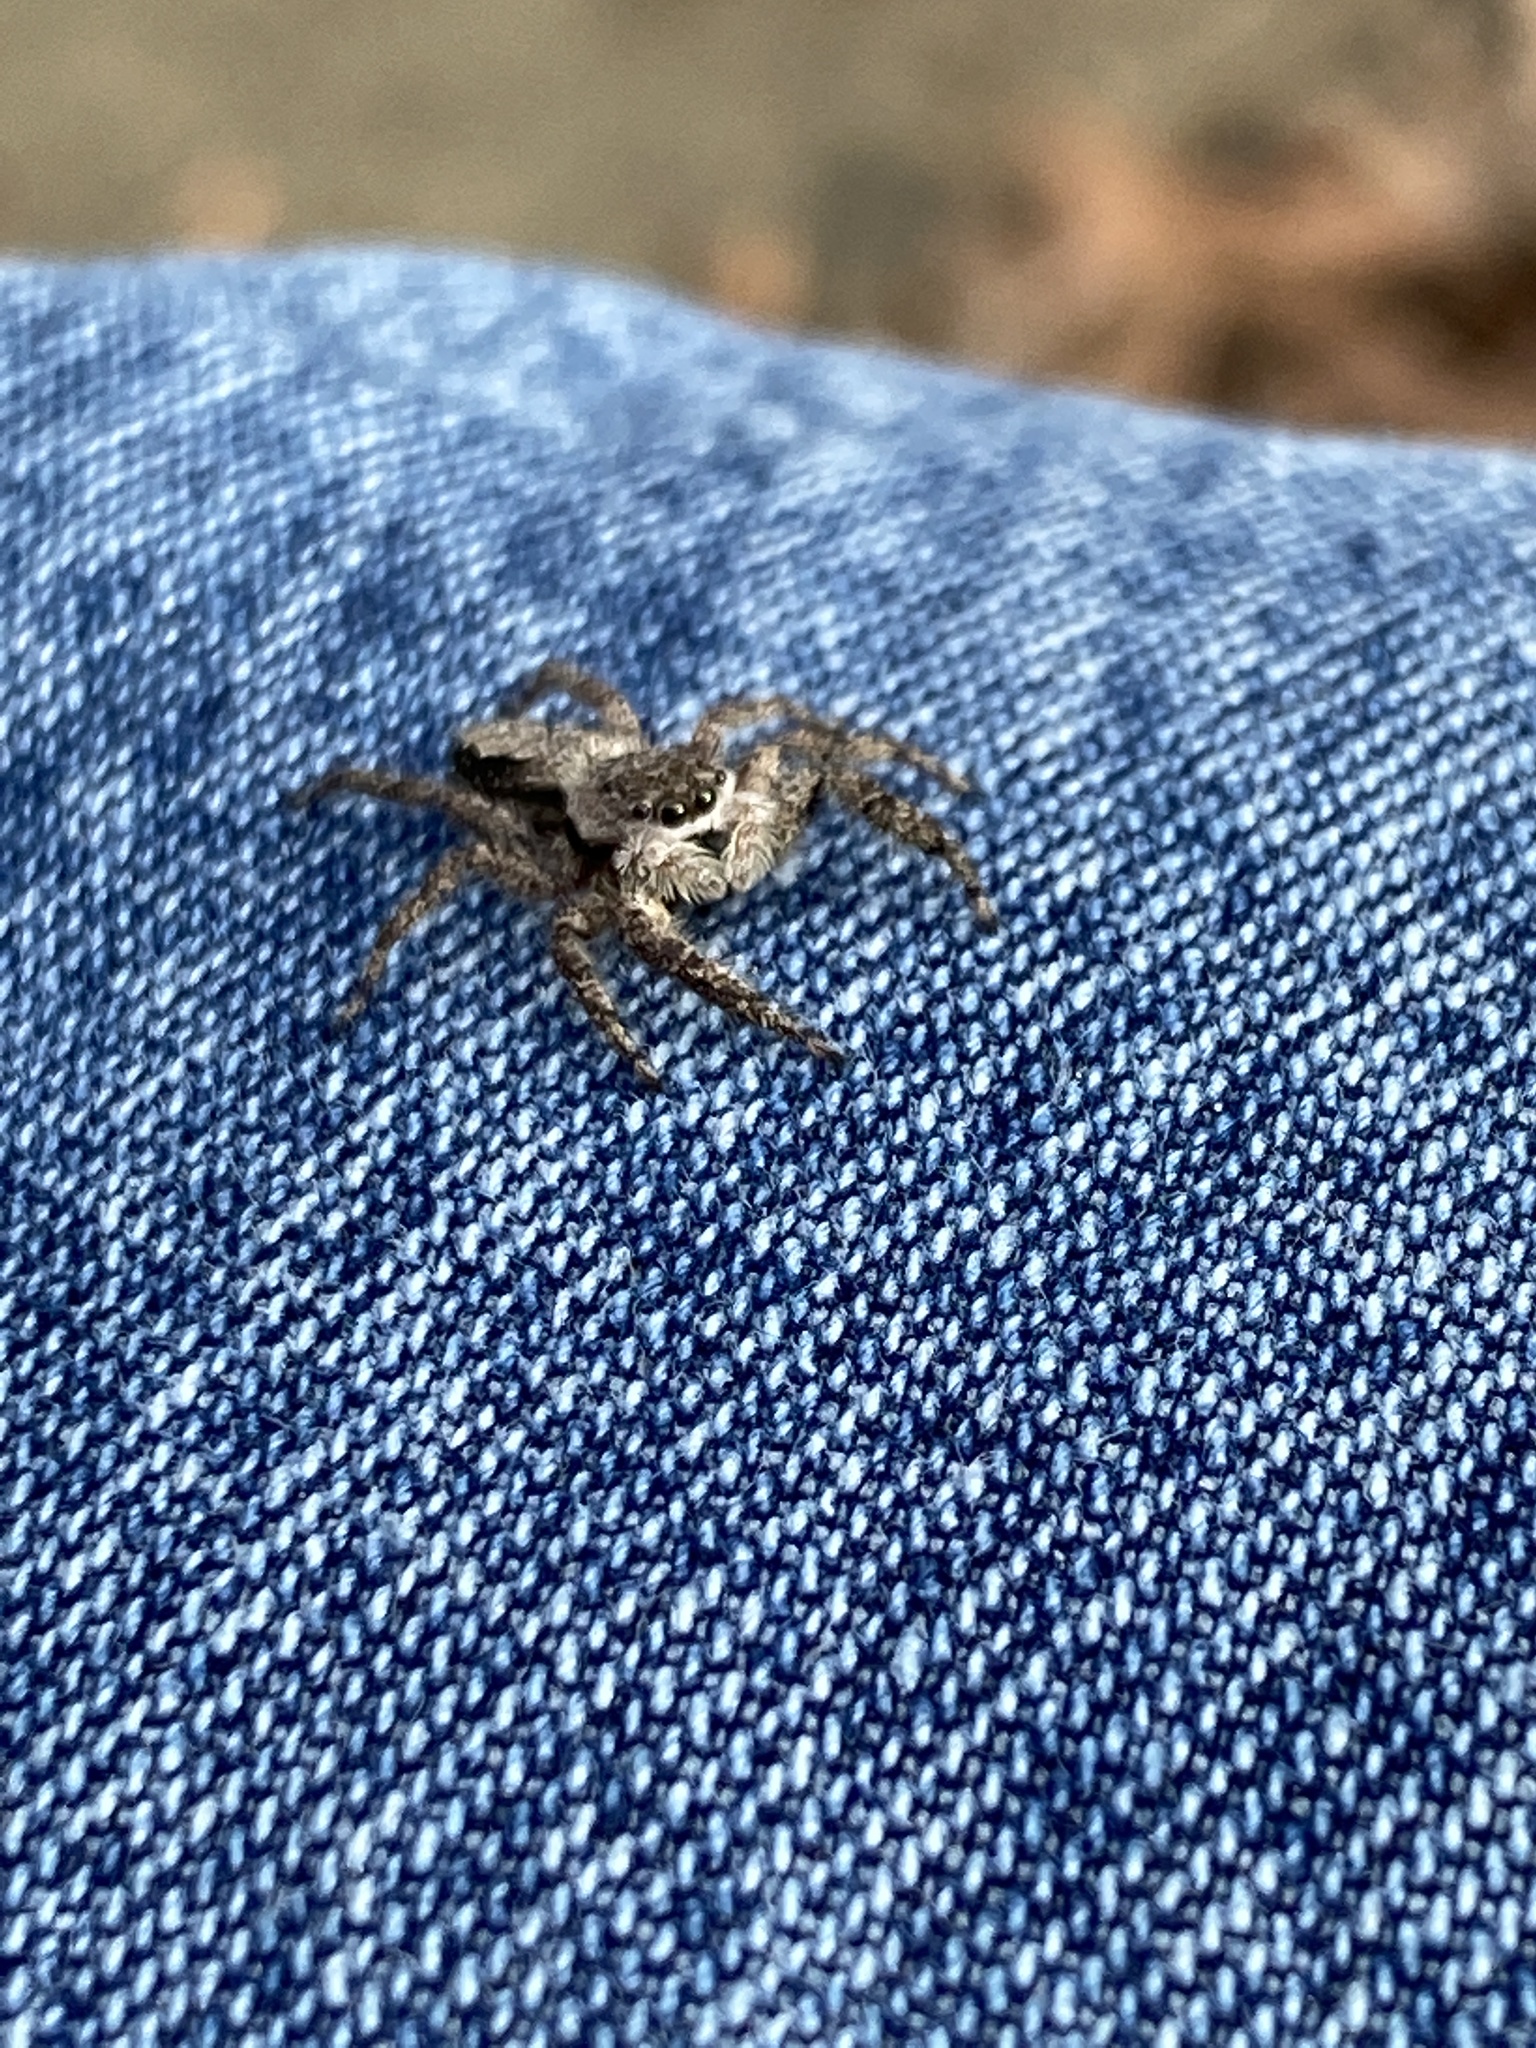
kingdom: Animalia
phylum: Arthropoda
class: Arachnida
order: Araneae
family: Salticidae
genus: Platycryptus
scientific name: Platycryptus undatus
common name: Tan jumping spider
